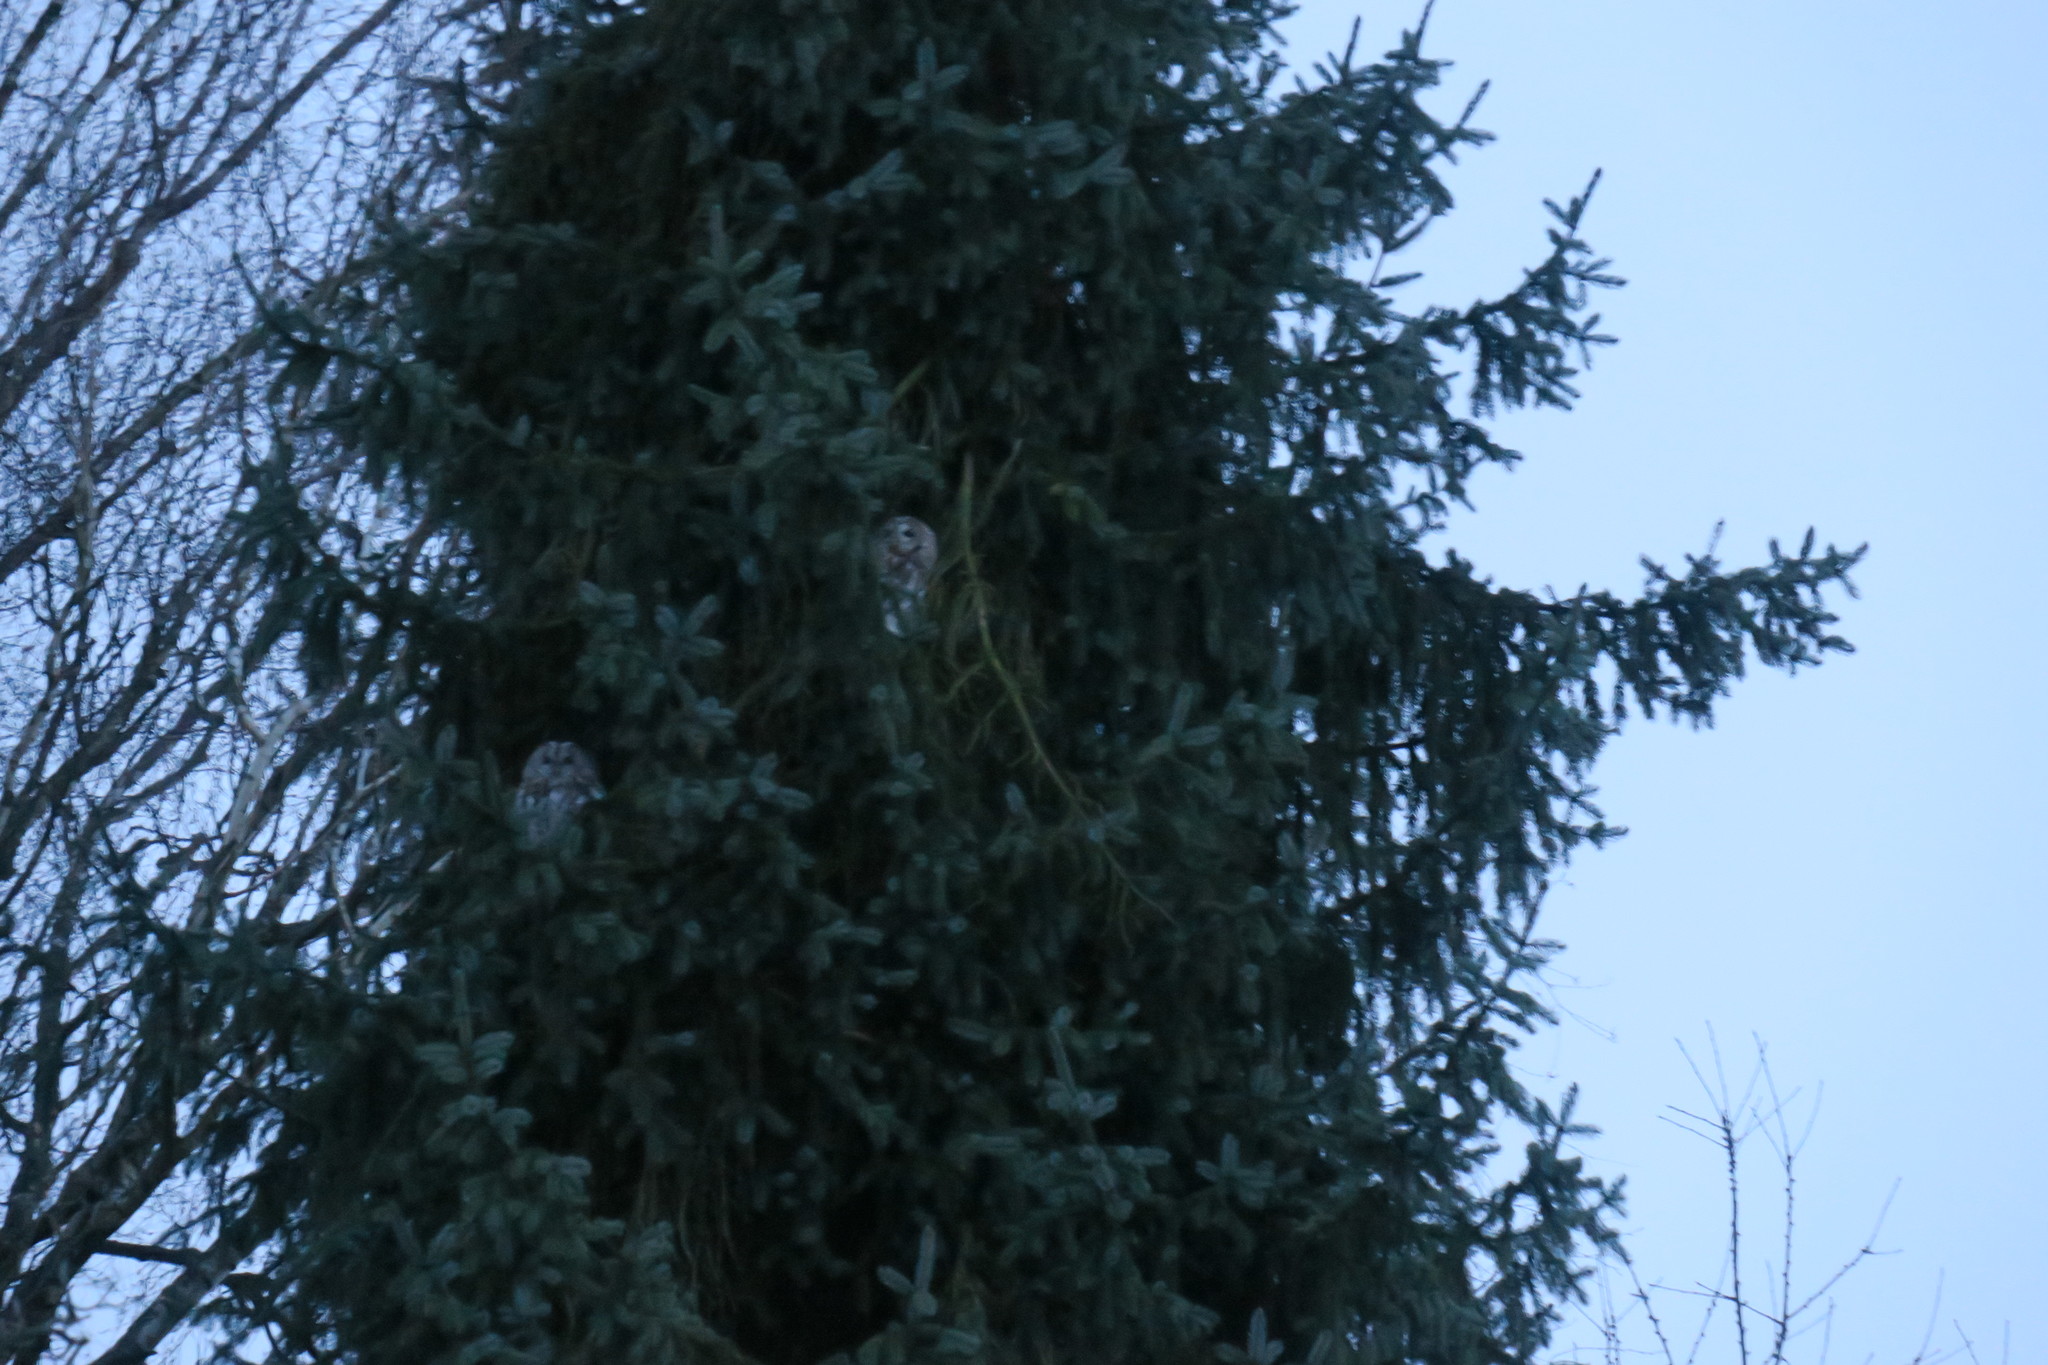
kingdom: Animalia
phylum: Chordata
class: Aves
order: Strigiformes
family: Strigidae
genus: Strix
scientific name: Strix aluco
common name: Tawny owl
